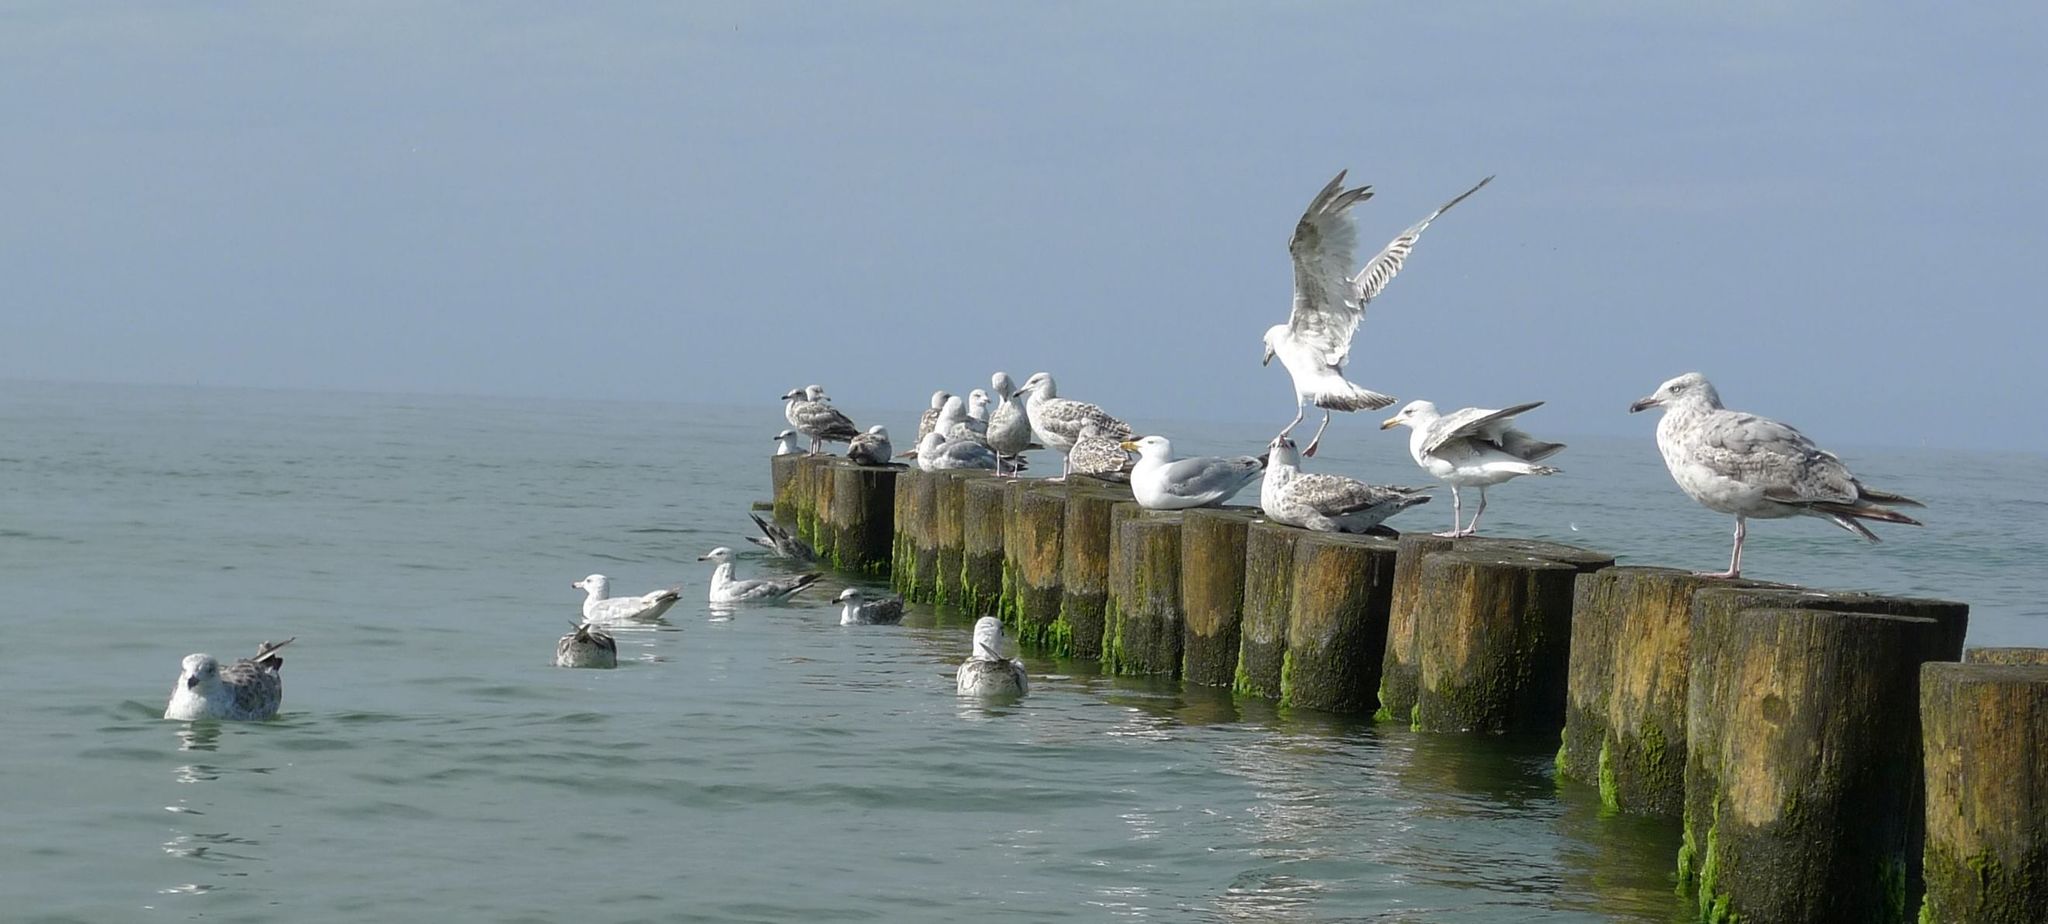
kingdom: Animalia
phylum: Chordata
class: Aves
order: Charadriiformes
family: Laridae
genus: Larus
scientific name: Larus argentatus
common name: Herring gull
